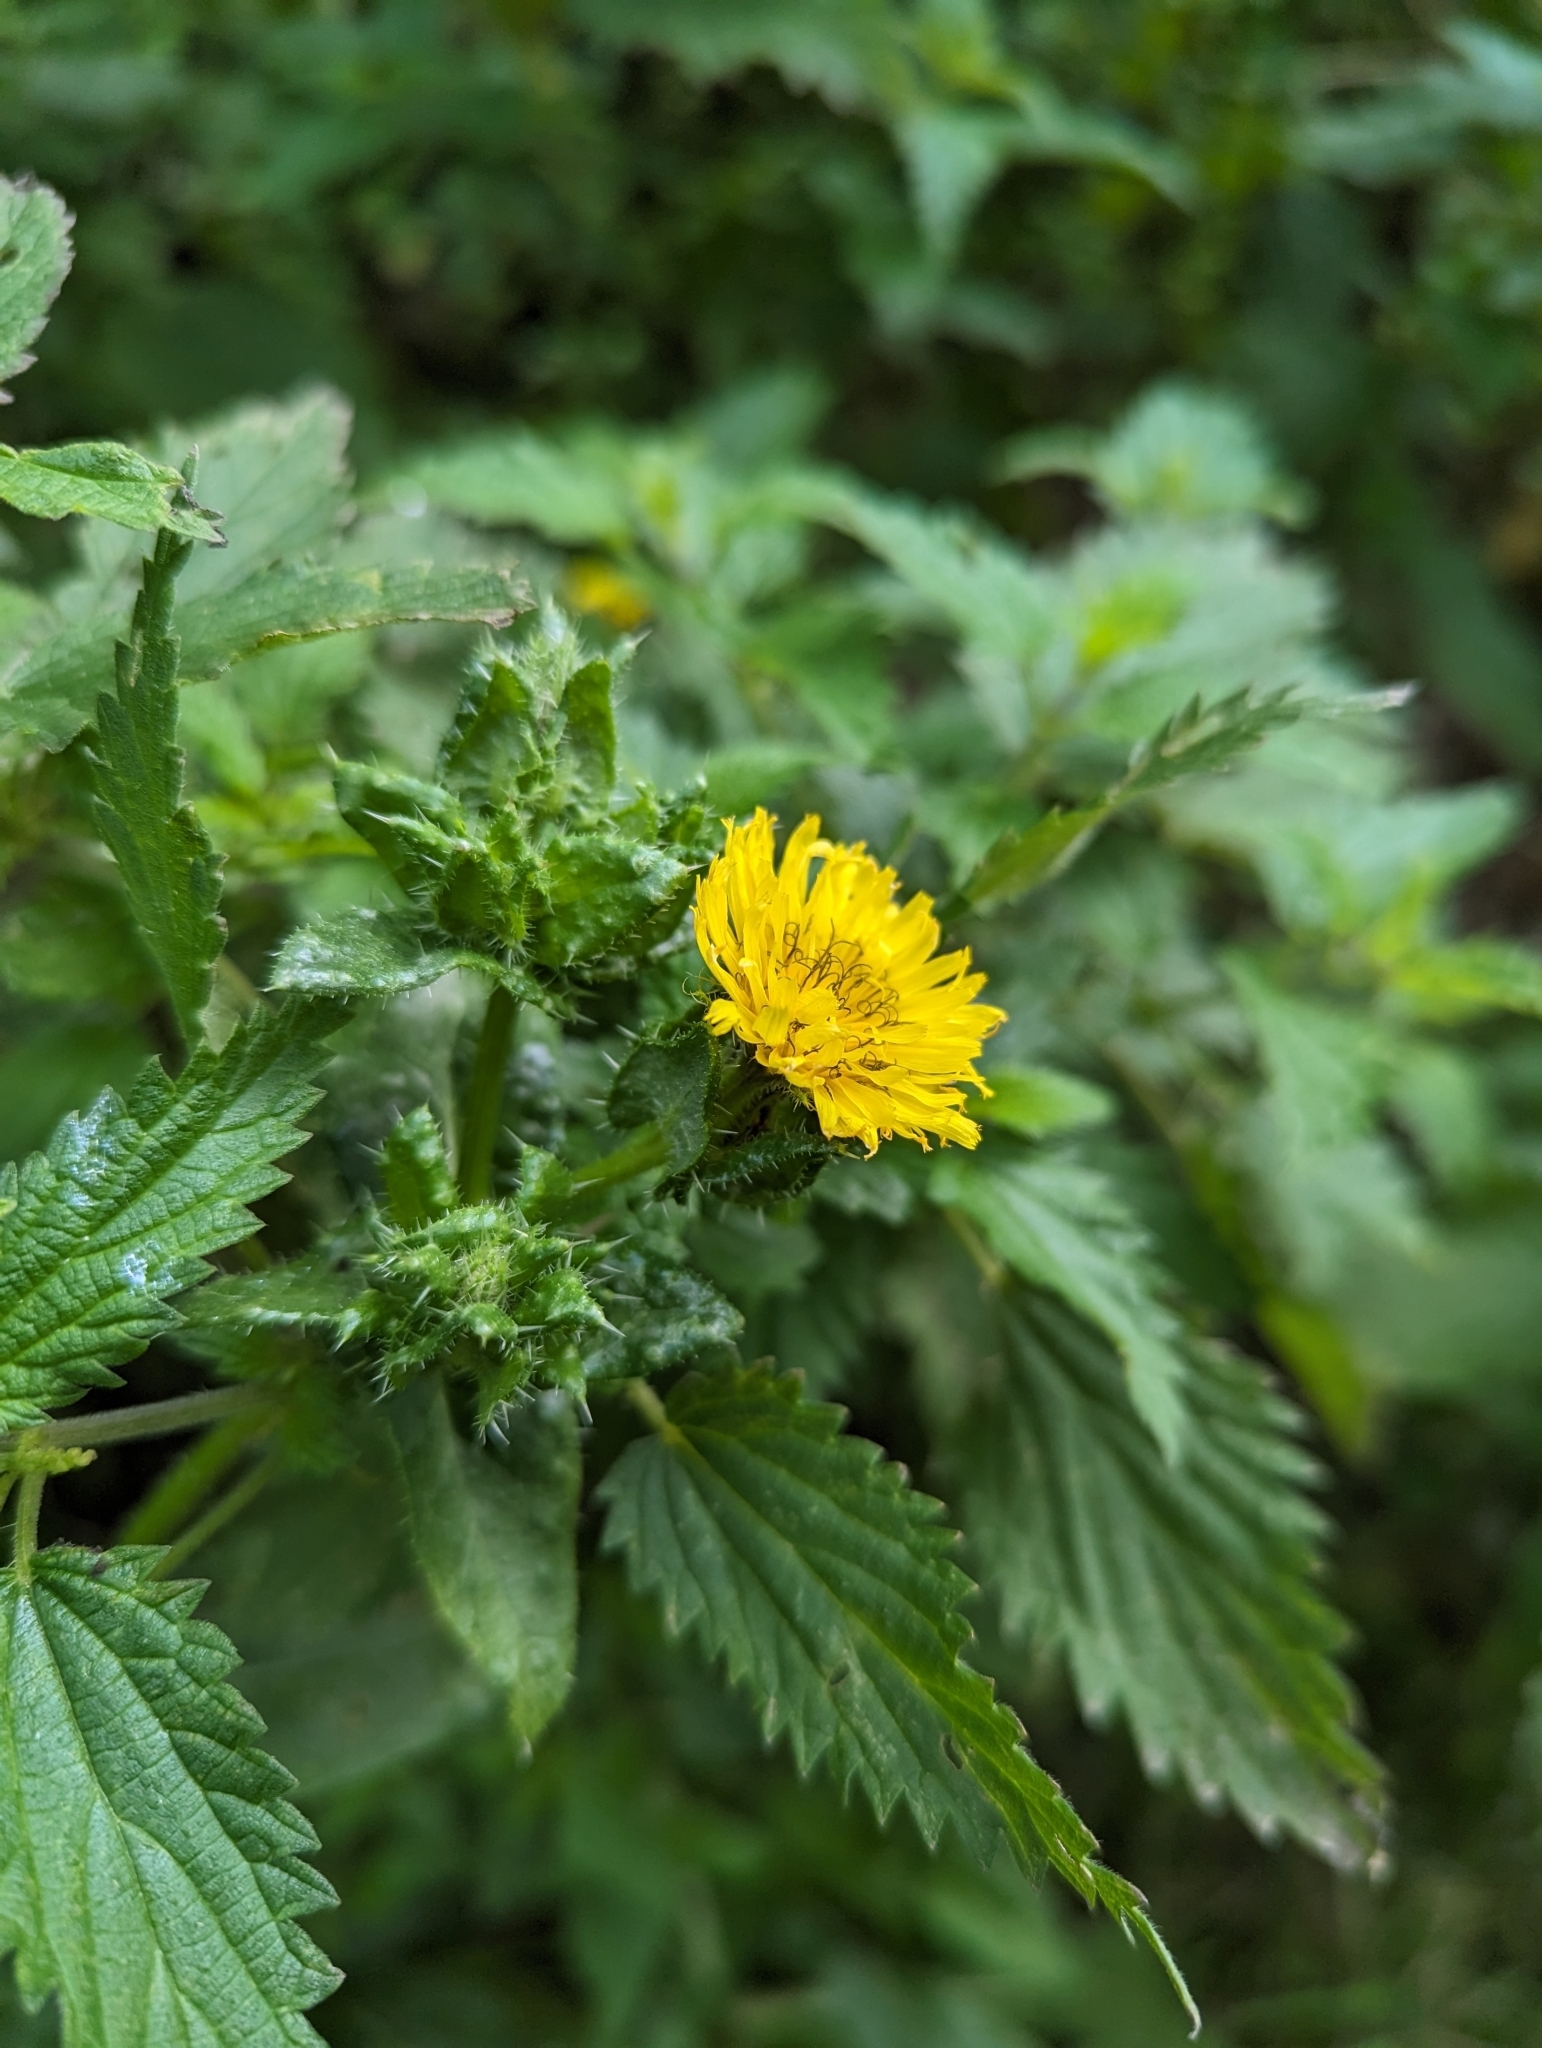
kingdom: Plantae
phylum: Tracheophyta
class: Magnoliopsida
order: Asterales
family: Asteraceae
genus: Helminthotheca
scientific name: Helminthotheca echioides
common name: Ox-tongue
